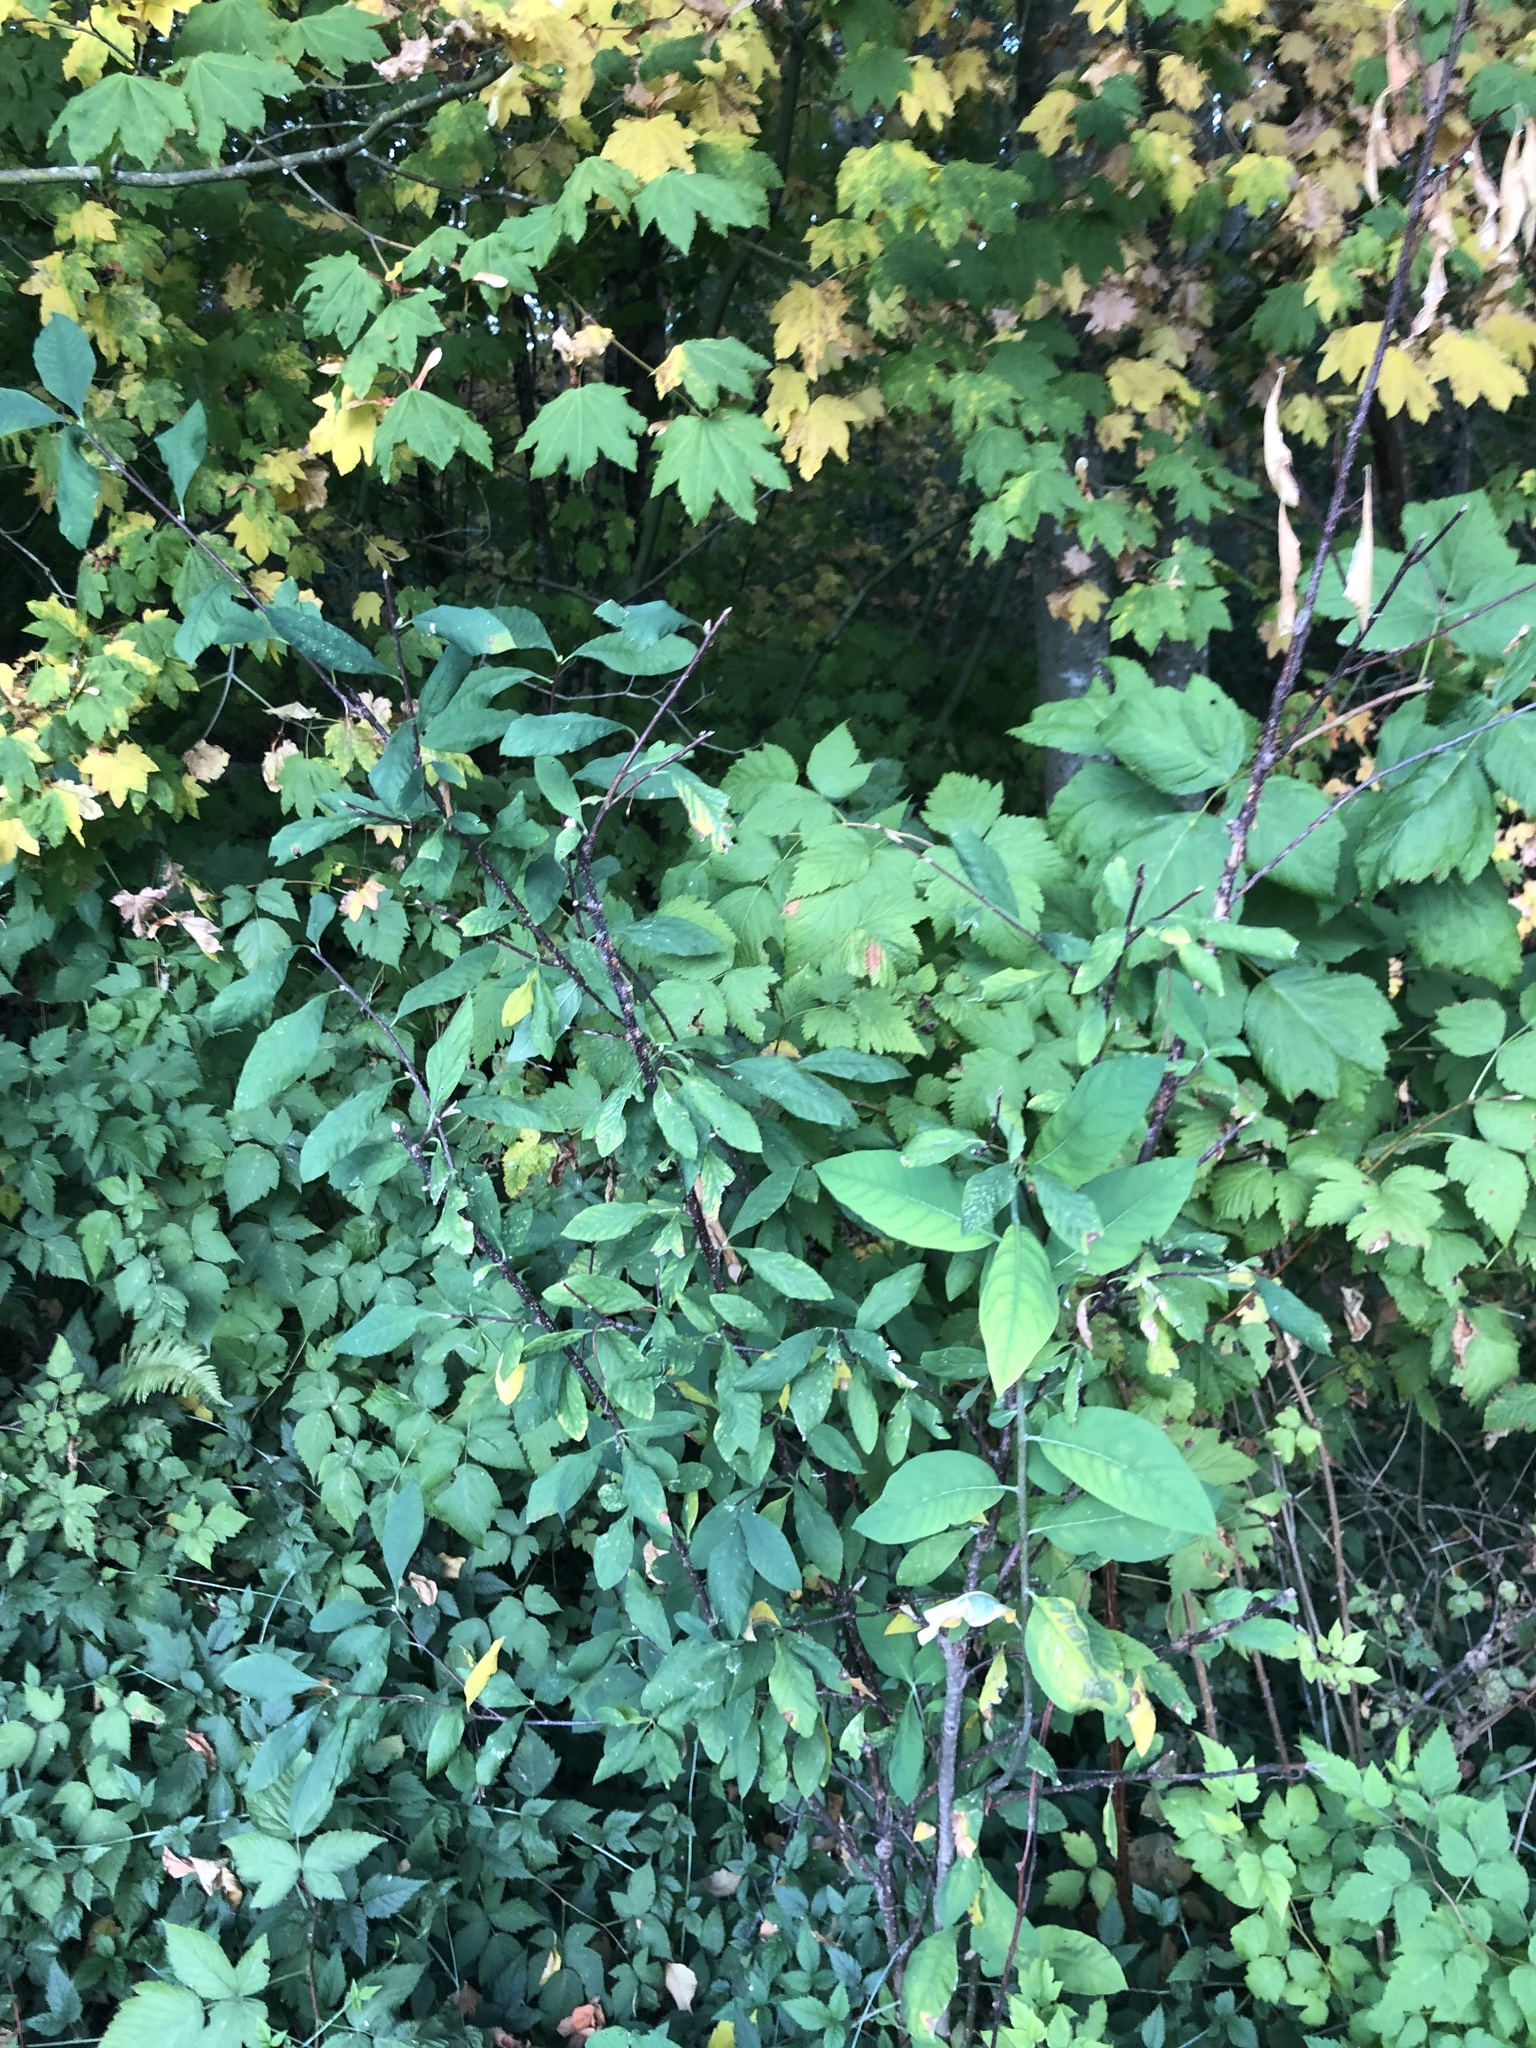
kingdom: Plantae
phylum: Tracheophyta
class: Magnoliopsida
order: Rosales
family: Rosaceae
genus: Oemleria
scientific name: Oemleria cerasiformis
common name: Osoberry
